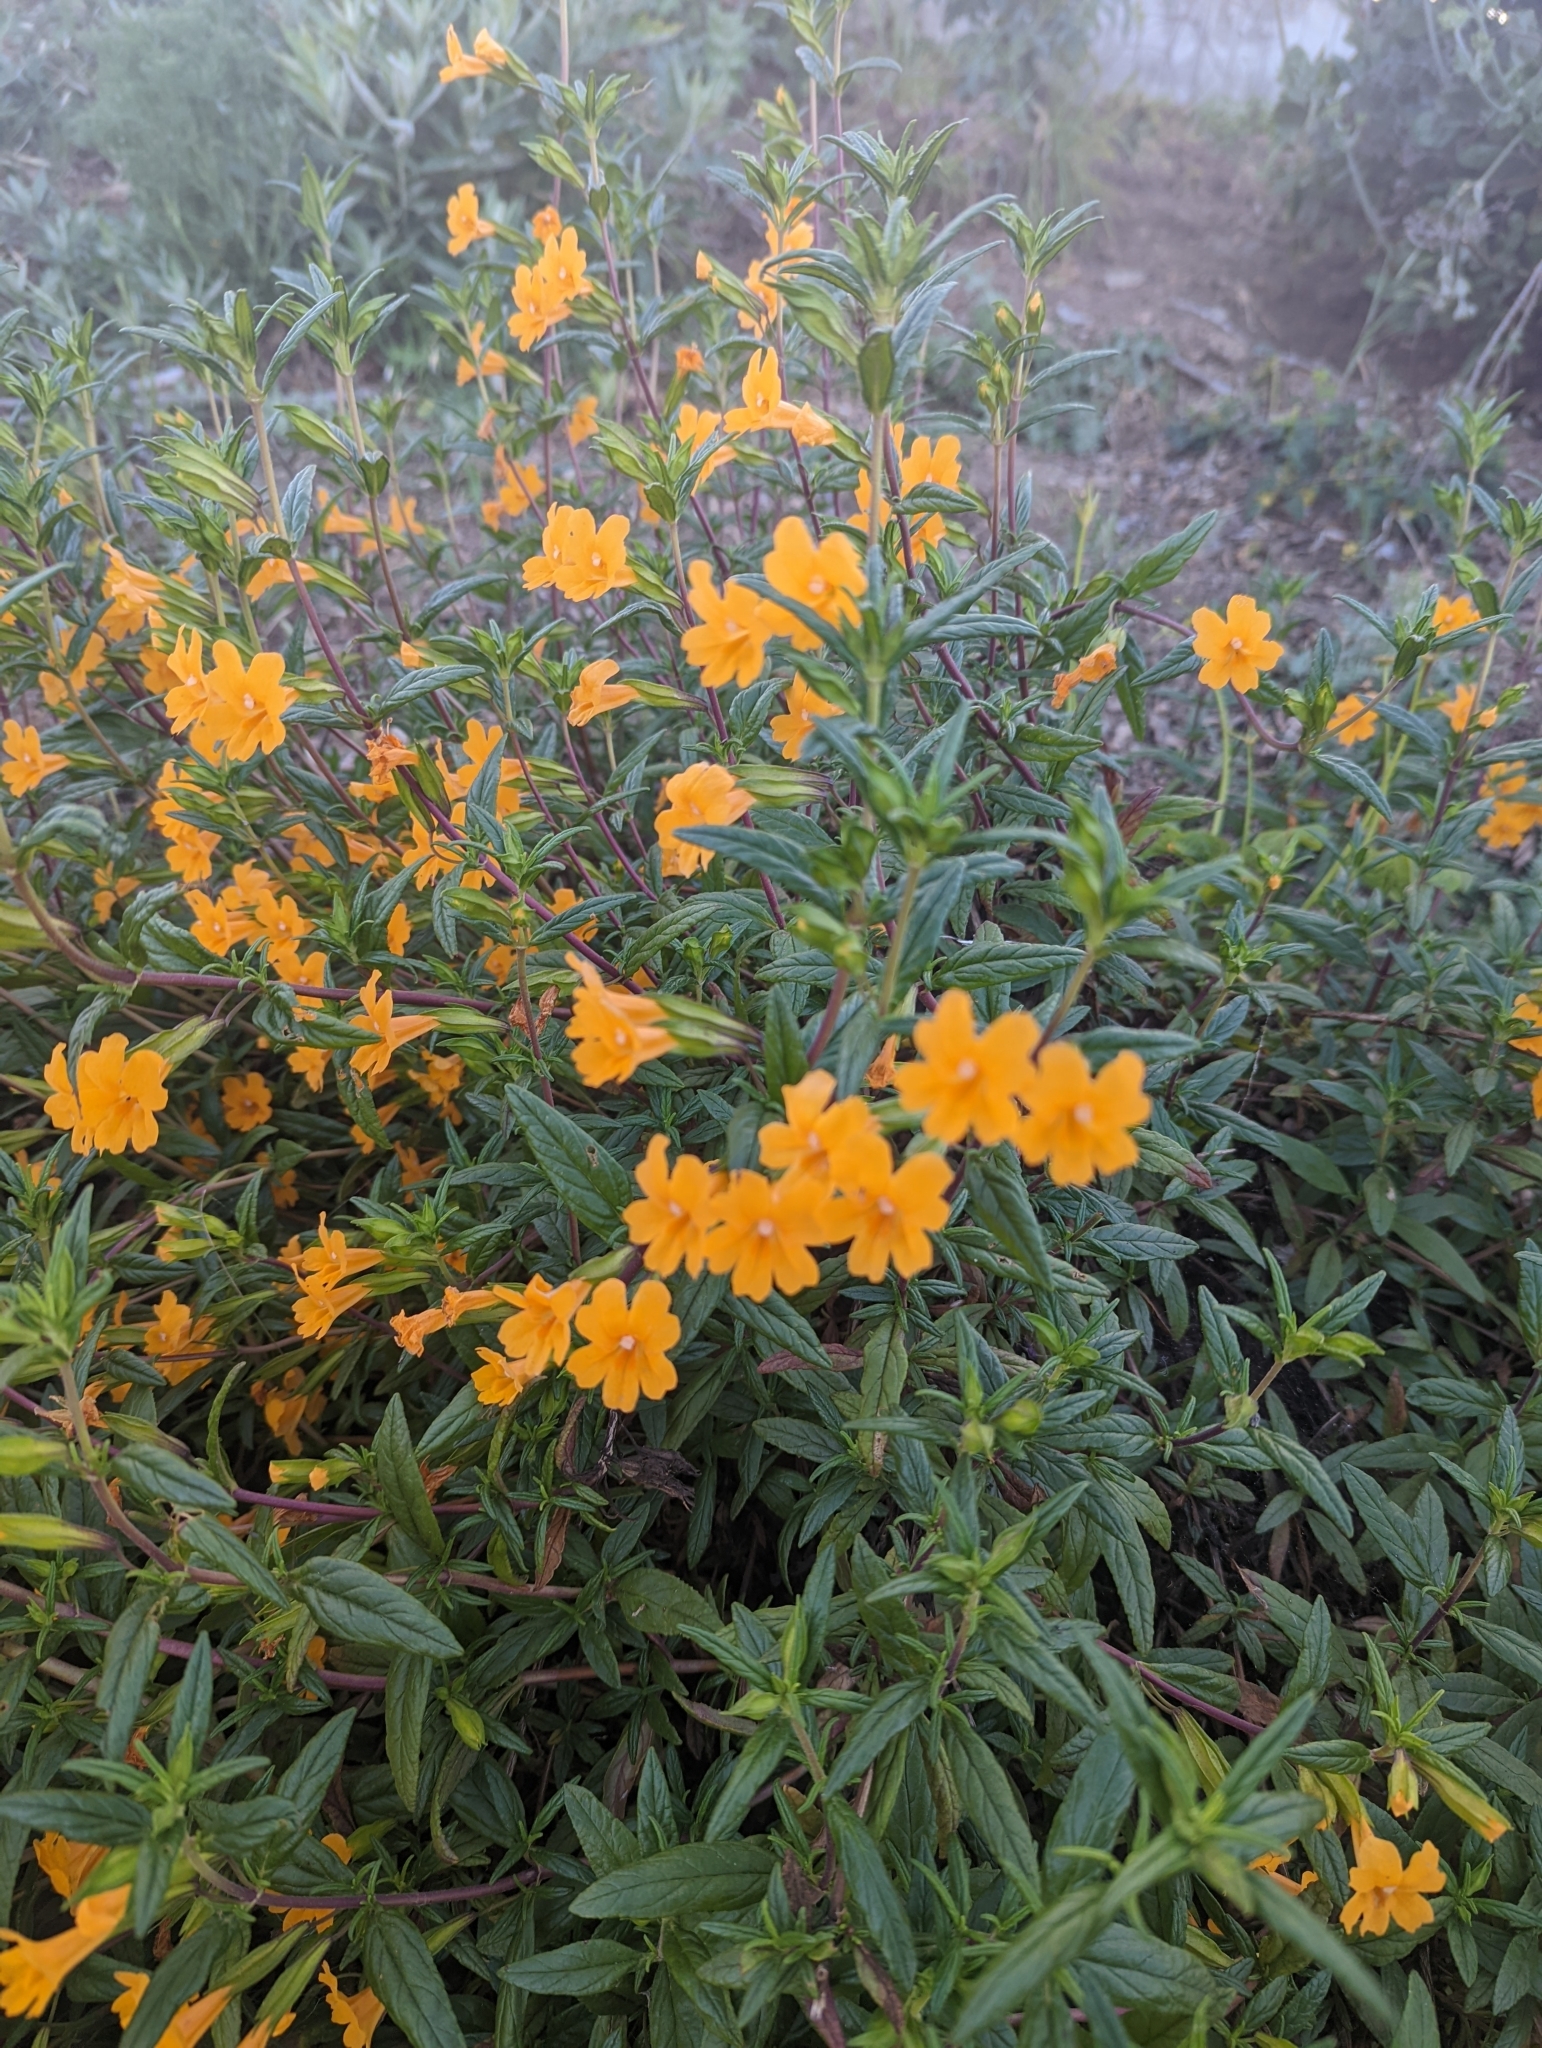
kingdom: Plantae
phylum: Tracheophyta
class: Magnoliopsida
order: Lamiales
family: Phrymaceae
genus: Diplacus
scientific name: Diplacus aurantiacus
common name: Bush monkey-flower
